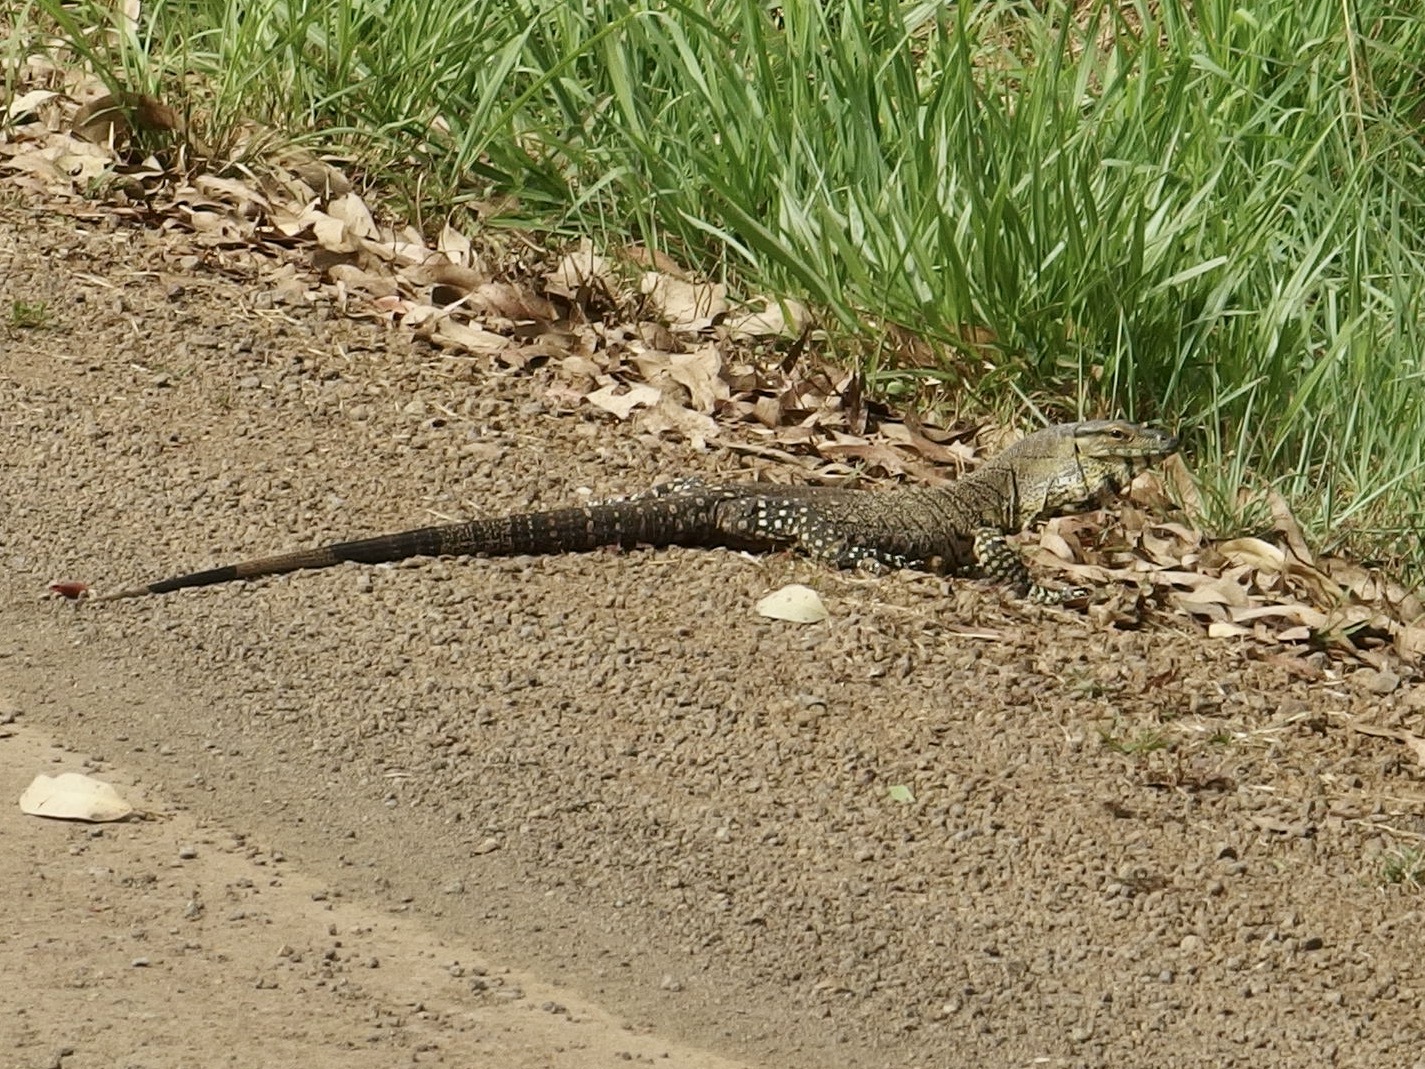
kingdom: Animalia
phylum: Chordata
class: Squamata
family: Varanidae
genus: Varanus
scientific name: Varanus varius
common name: Lace monitor
